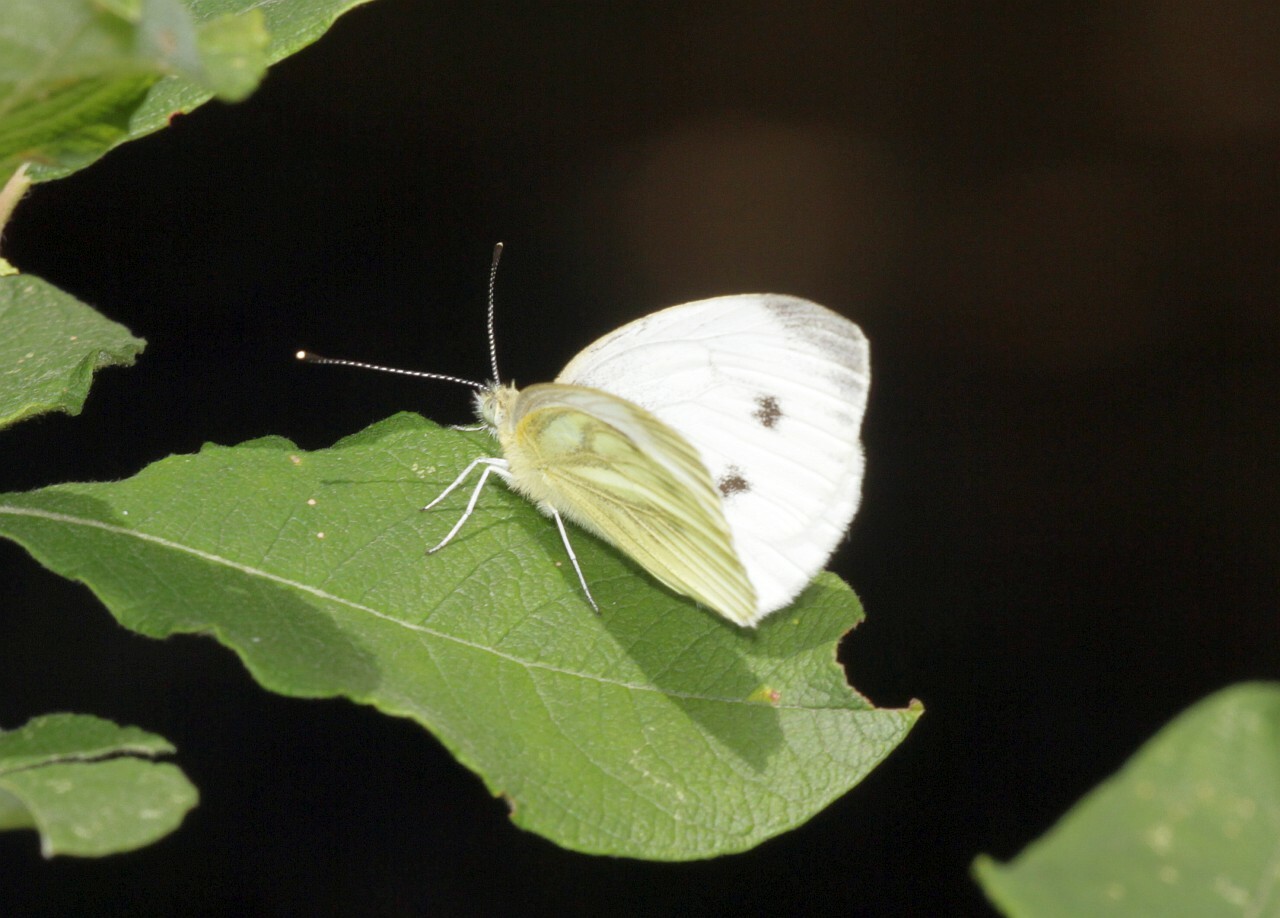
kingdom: Animalia
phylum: Arthropoda
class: Insecta
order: Lepidoptera
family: Pieridae
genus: Pieris
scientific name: Pieris napi
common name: Green-veined white
